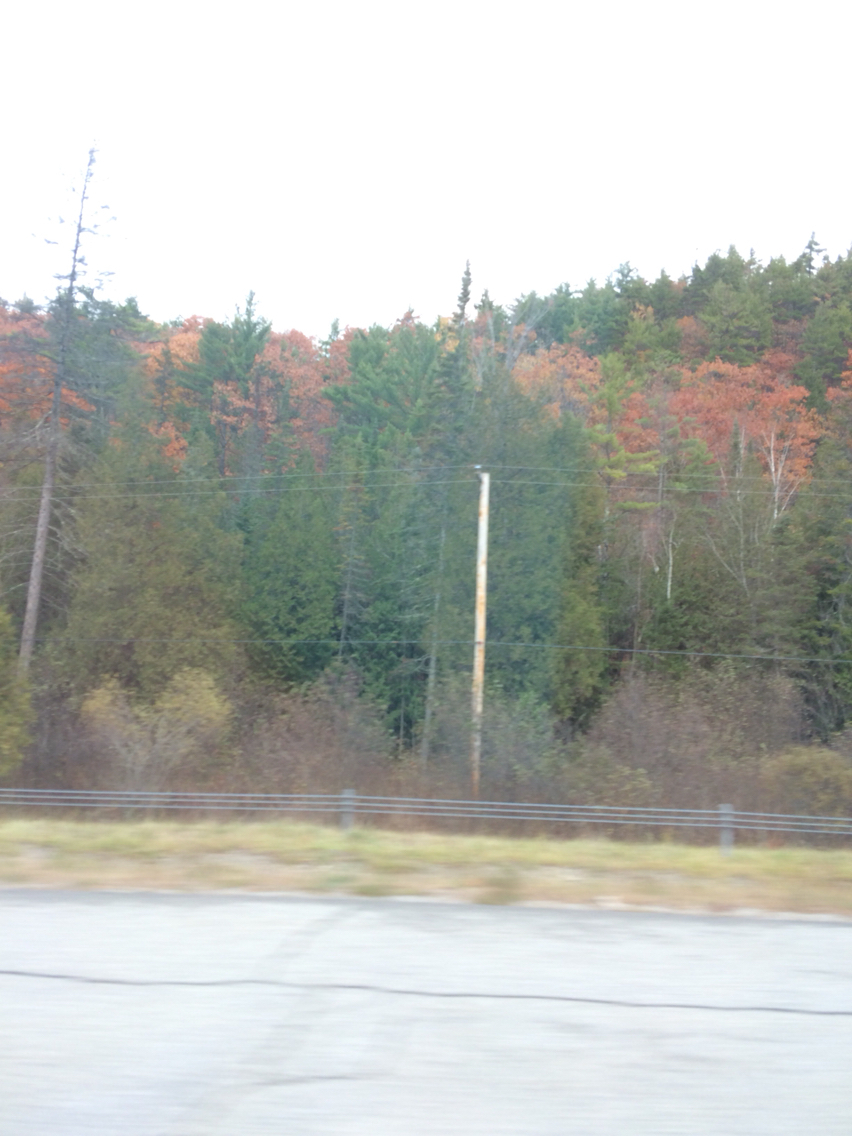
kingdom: Plantae
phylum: Tracheophyta
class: Pinopsida
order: Pinales
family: Cupressaceae
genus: Thuja
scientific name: Thuja occidentalis
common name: Northern white-cedar
